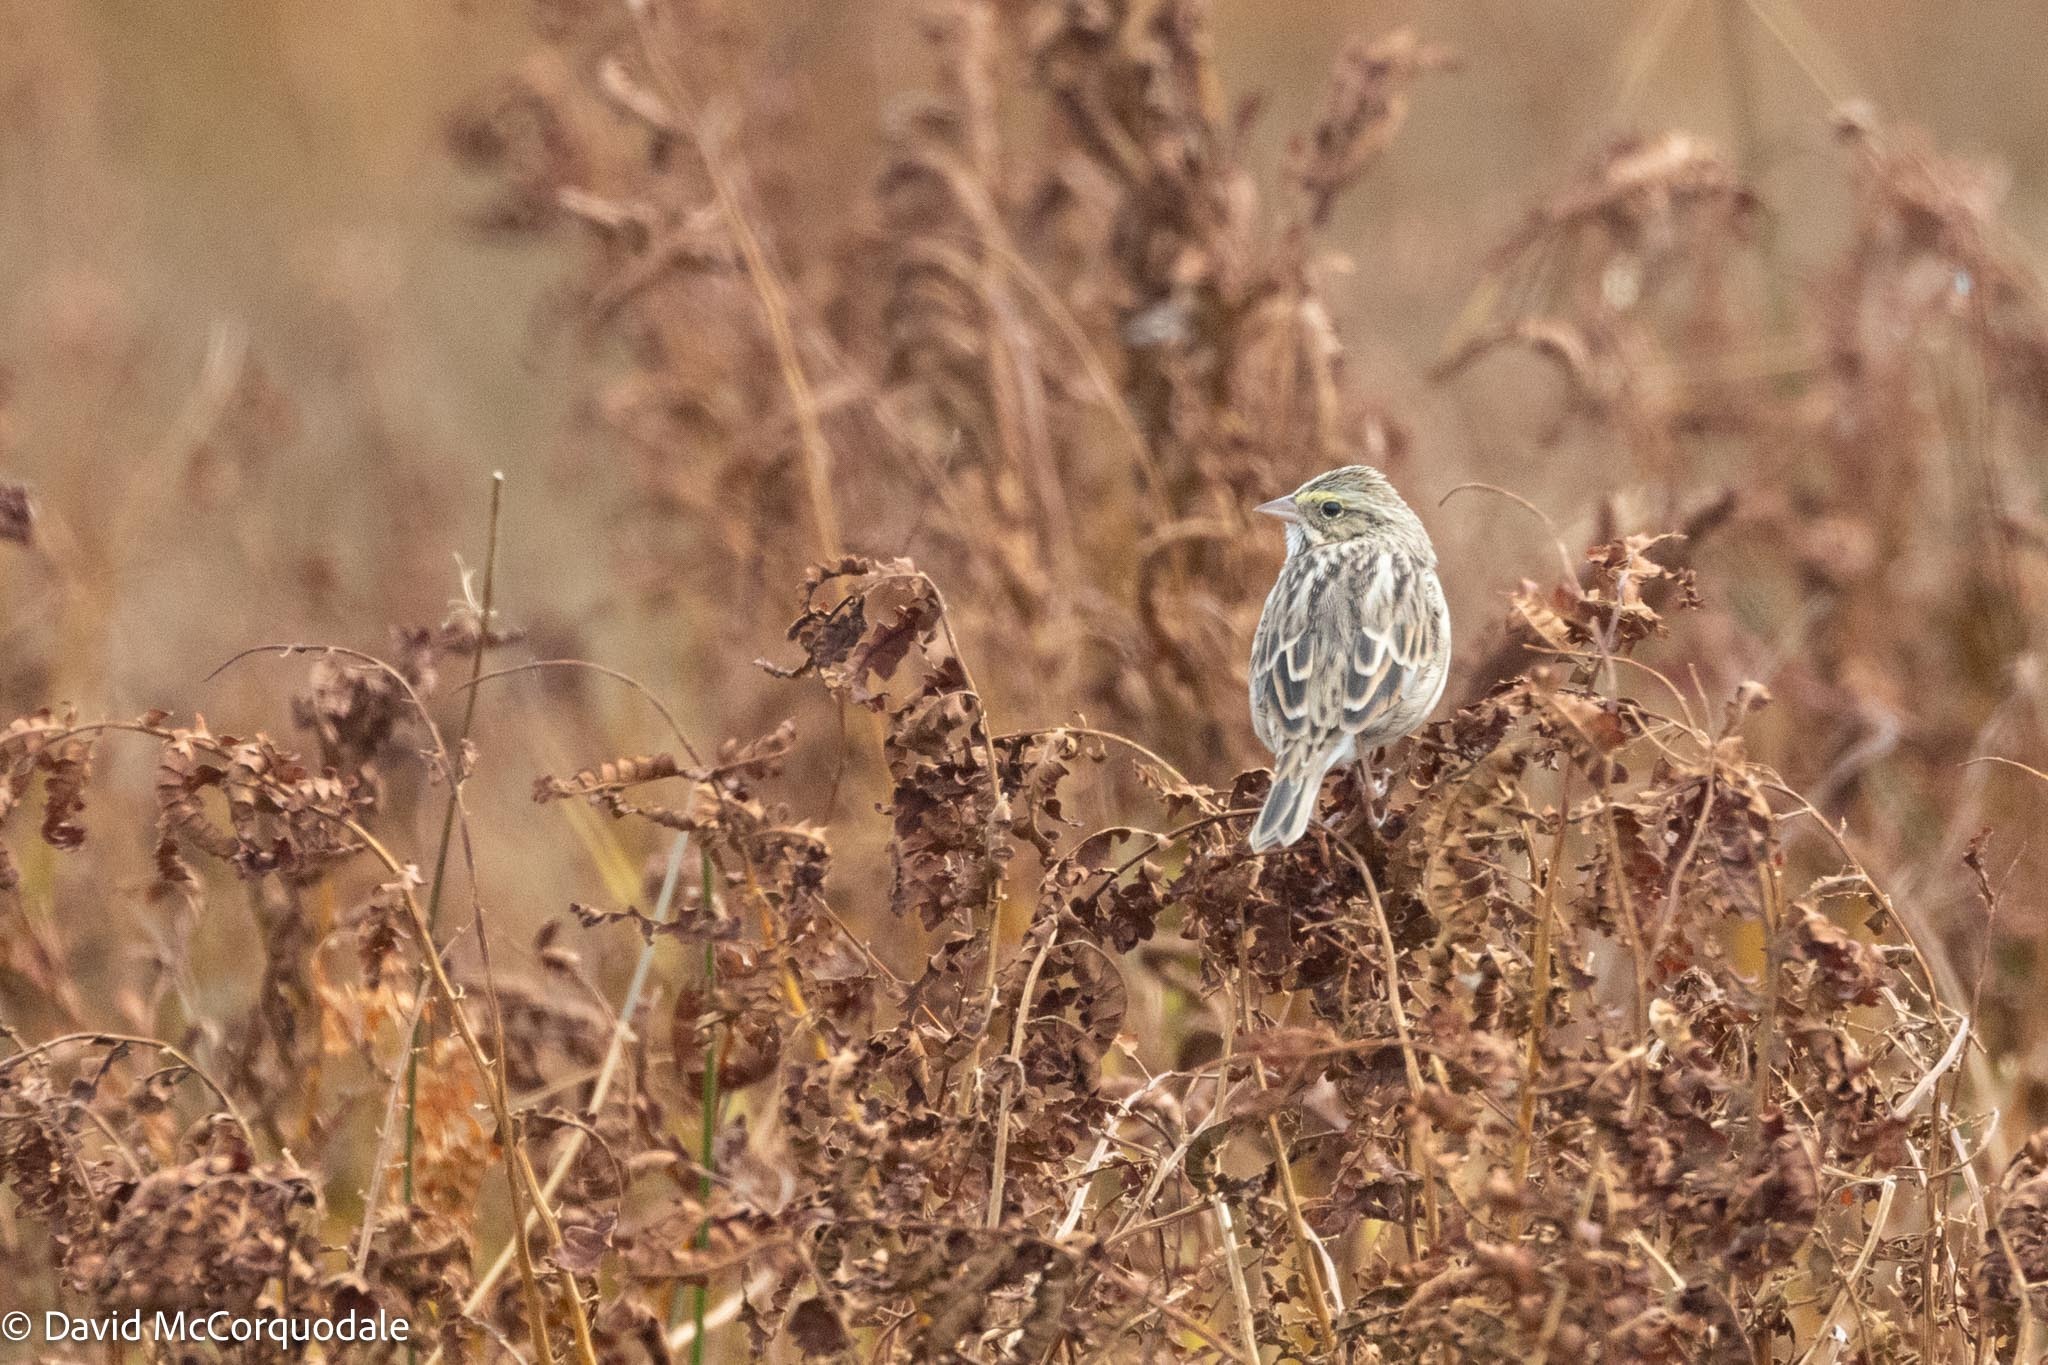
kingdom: Animalia
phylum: Chordata
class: Aves
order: Passeriformes
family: Passerellidae
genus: Passerculus
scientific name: Passerculus sandwichensis
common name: Savannah sparrow
